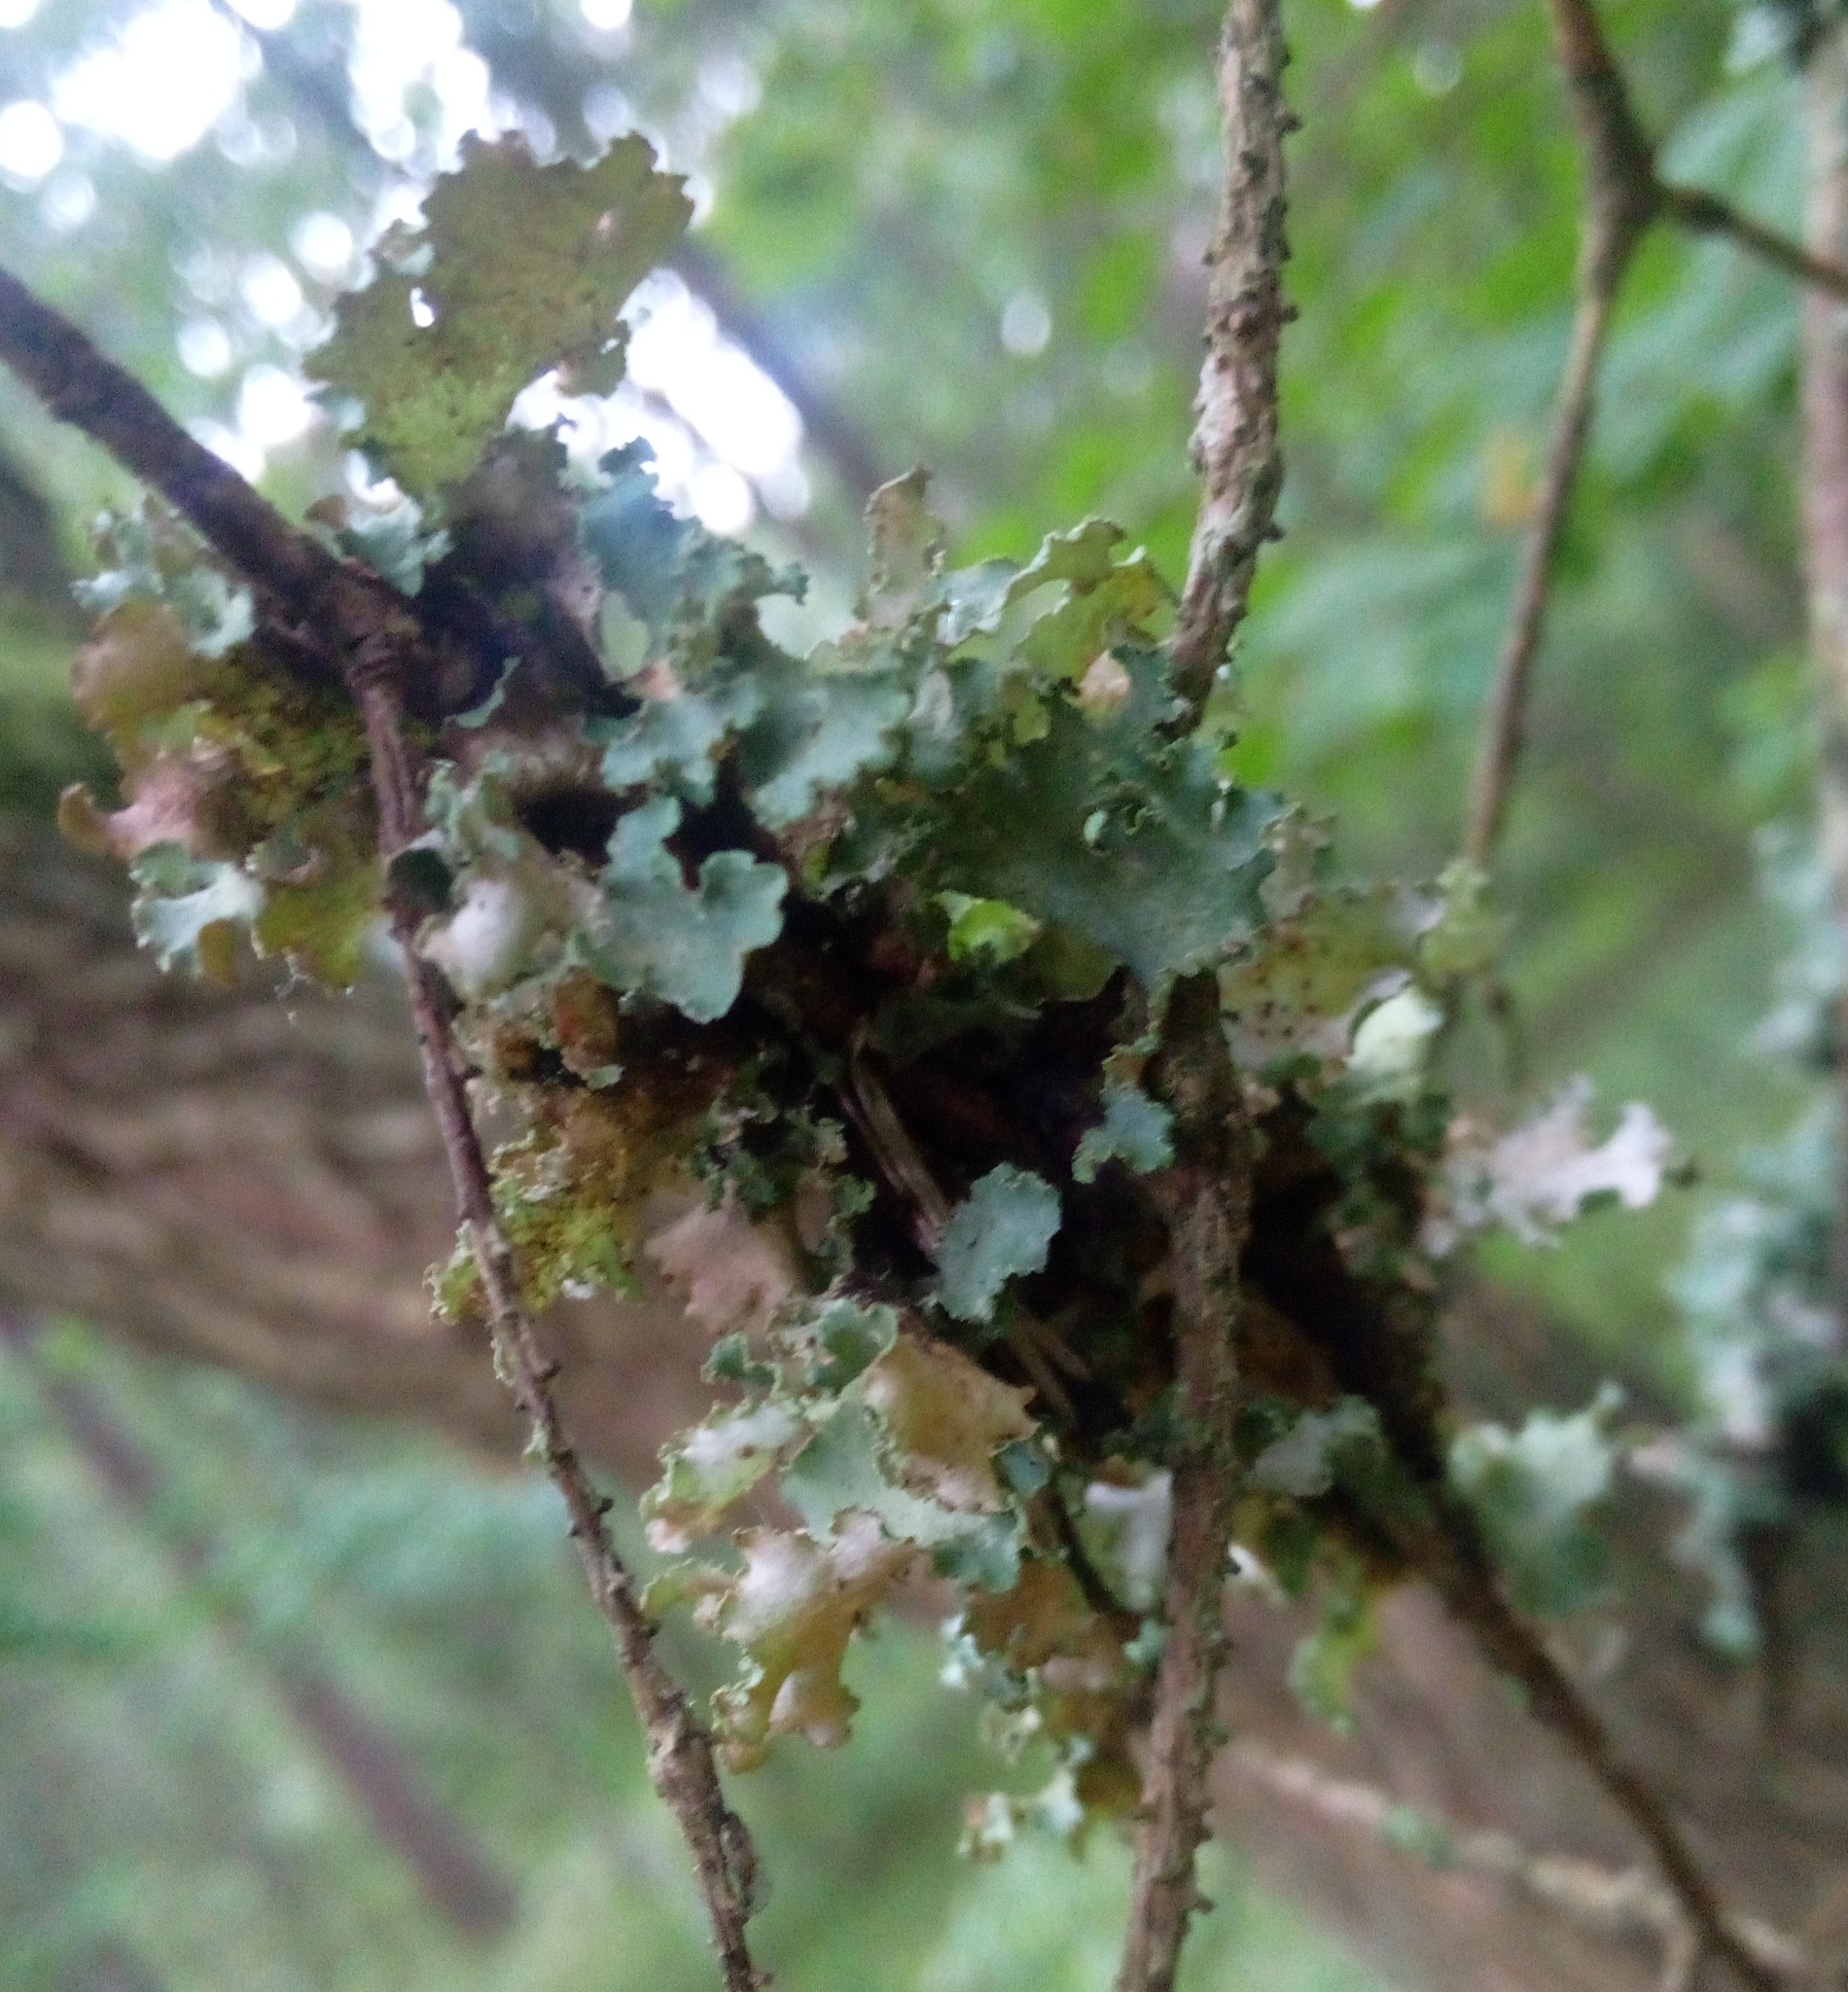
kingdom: Fungi
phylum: Ascomycota
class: Lecanoromycetes
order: Lecanorales
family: Parmeliaceae
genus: Platismatia
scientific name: Platismatia glauca
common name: Varied rag lichen
